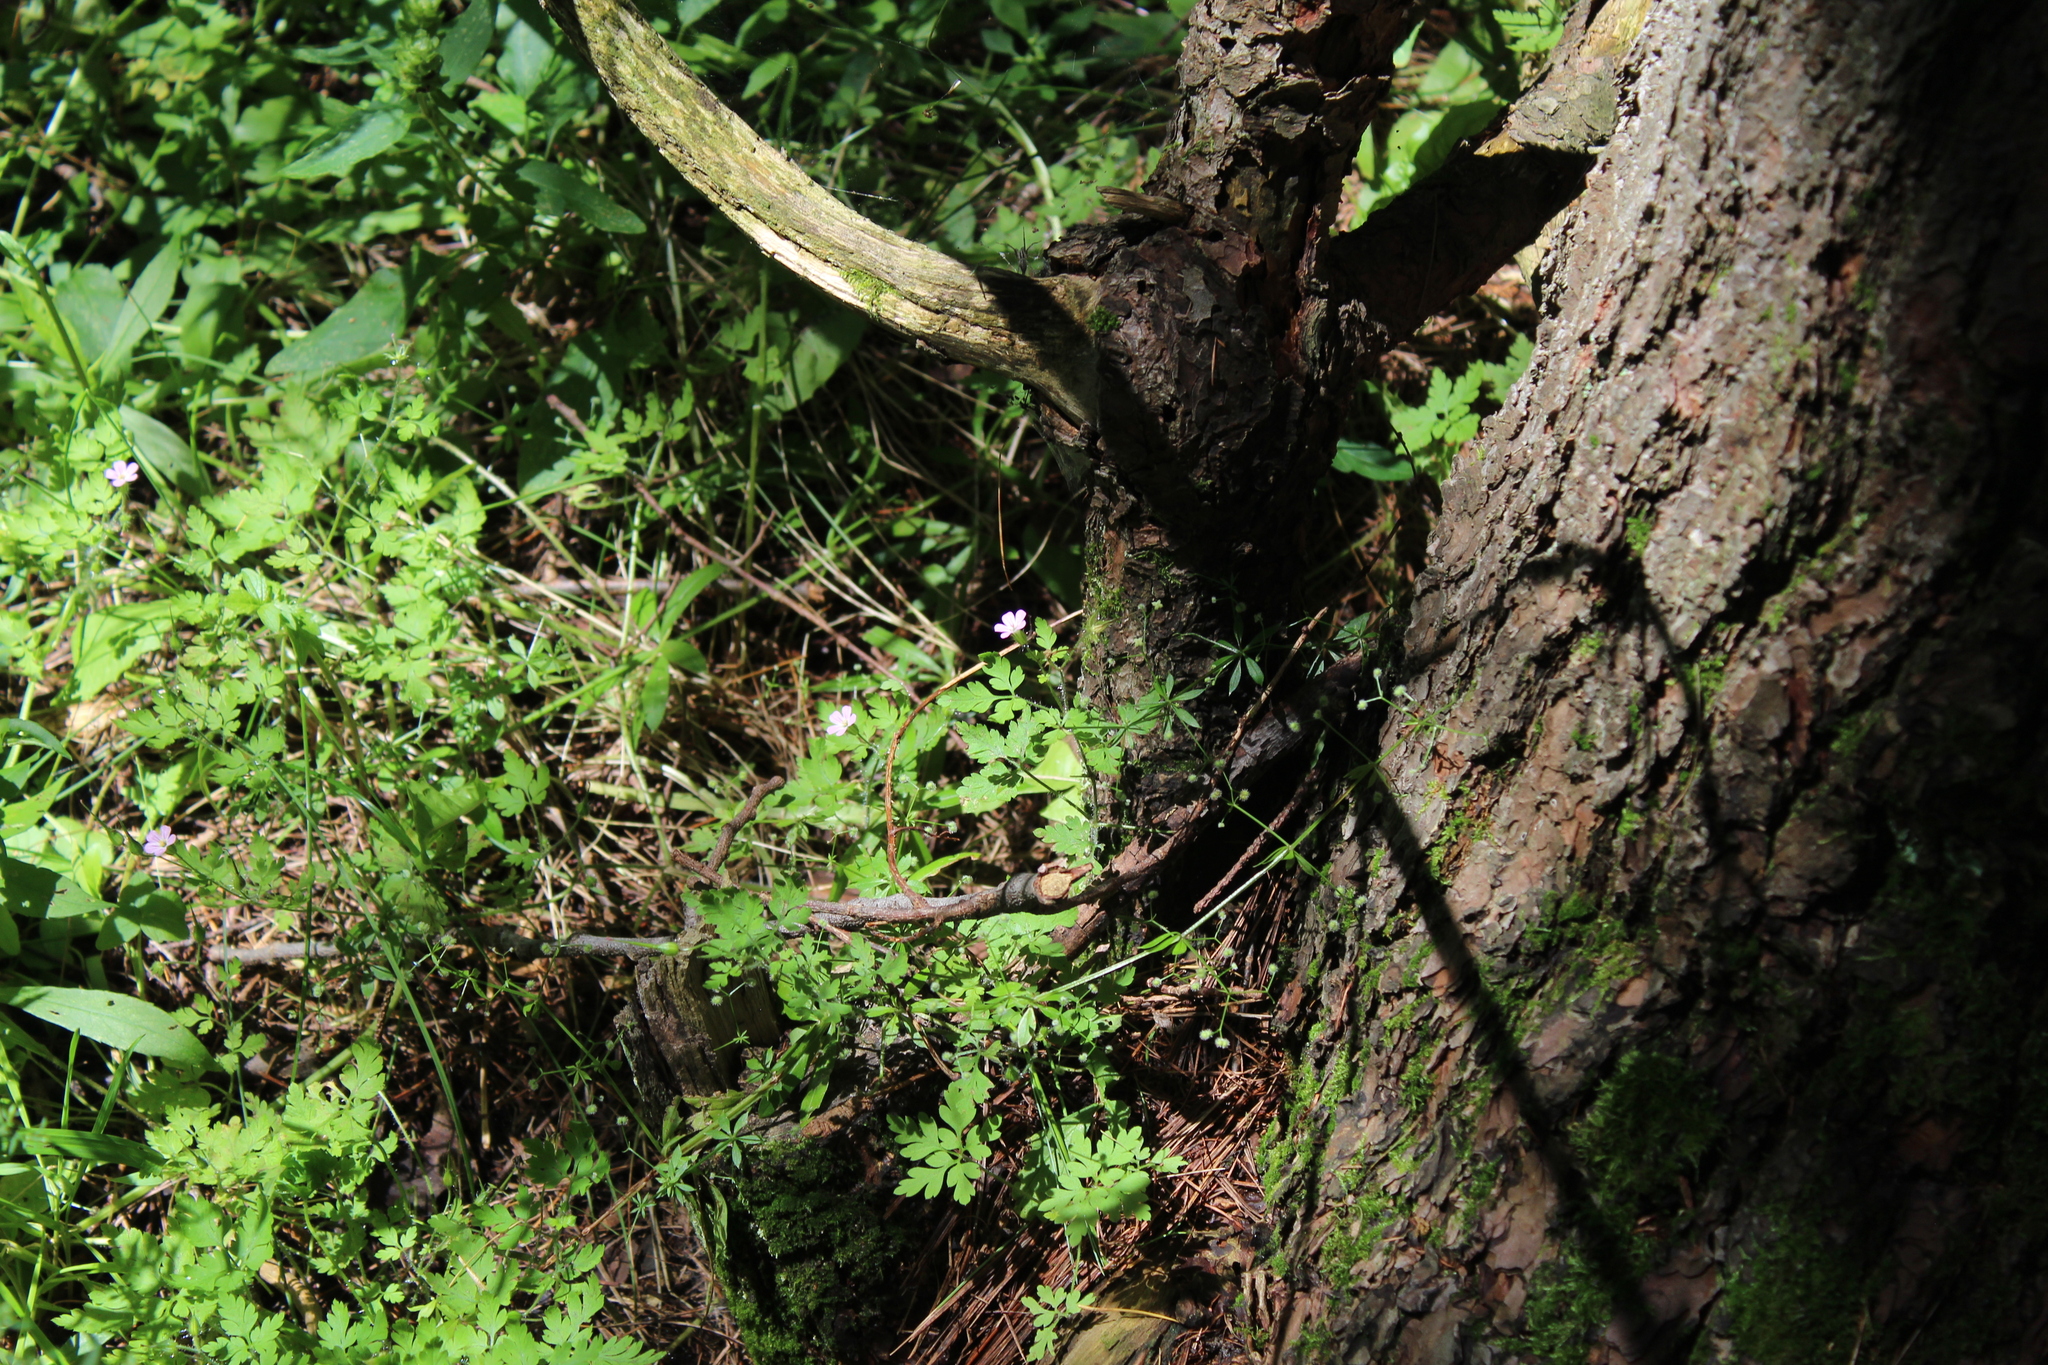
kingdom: Plantae
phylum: Tracheophyta
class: Magnoliopsida
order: Geraniales
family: Geraniaceae
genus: Geranium
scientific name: Geranium robertianum
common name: Herb-robert
